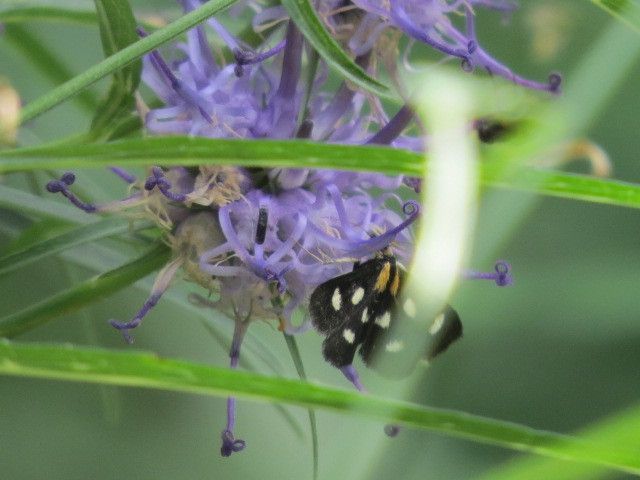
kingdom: Animalia
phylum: Arthropoda
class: Insecta
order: Lepidoptera
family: Crambidae
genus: Anania
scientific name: Anania funebris
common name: White-spotted sable moth
